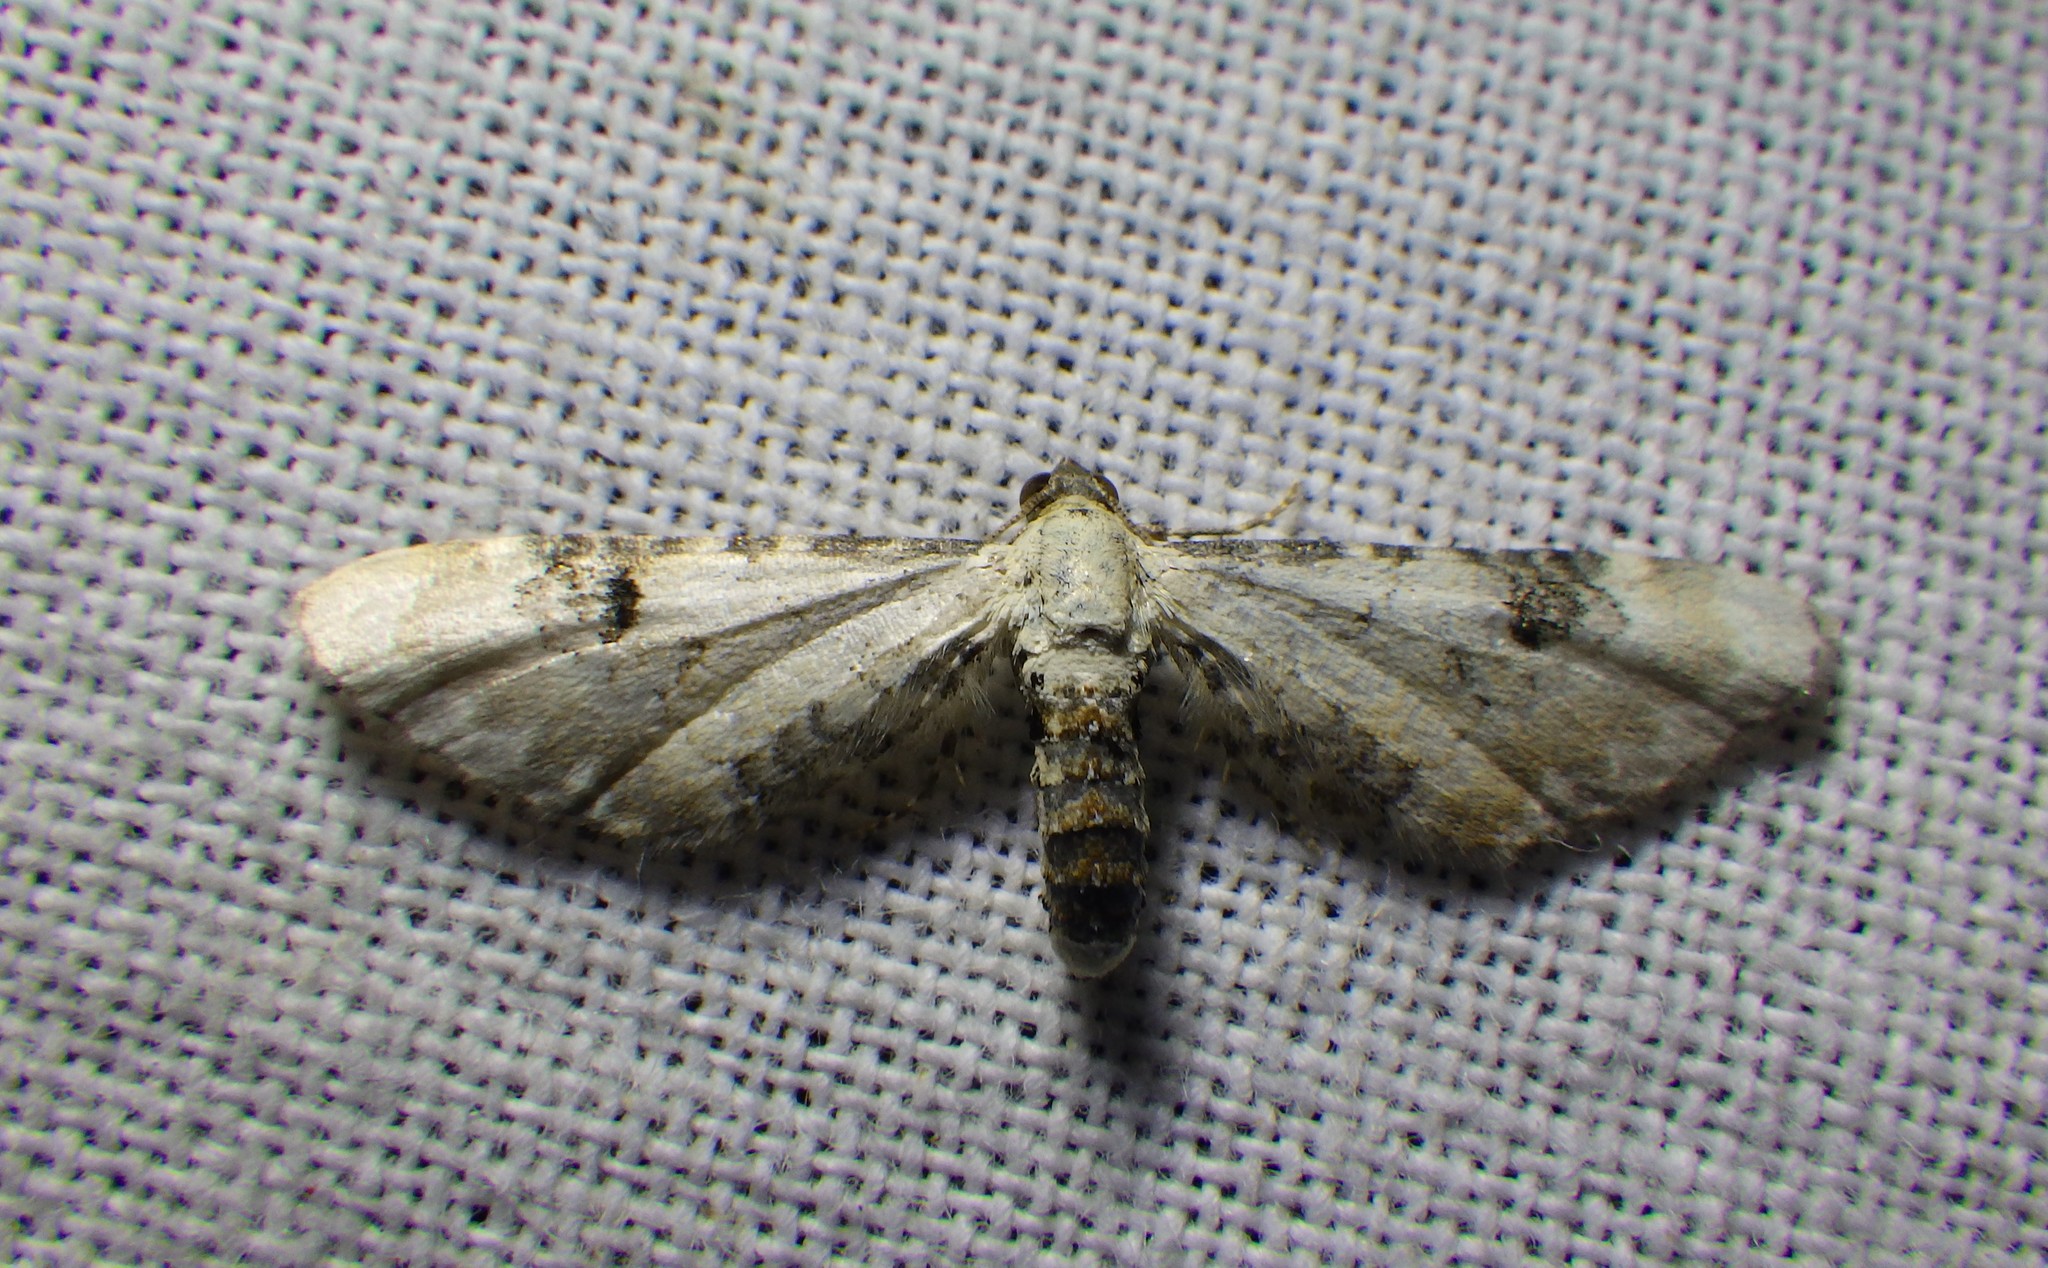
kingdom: Animalia
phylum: Arthropoda
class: Insecta
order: Lepidoptera
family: Geometridae
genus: Eupithecia
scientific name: Eupithecia centaureata
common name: Lime-speck pug
